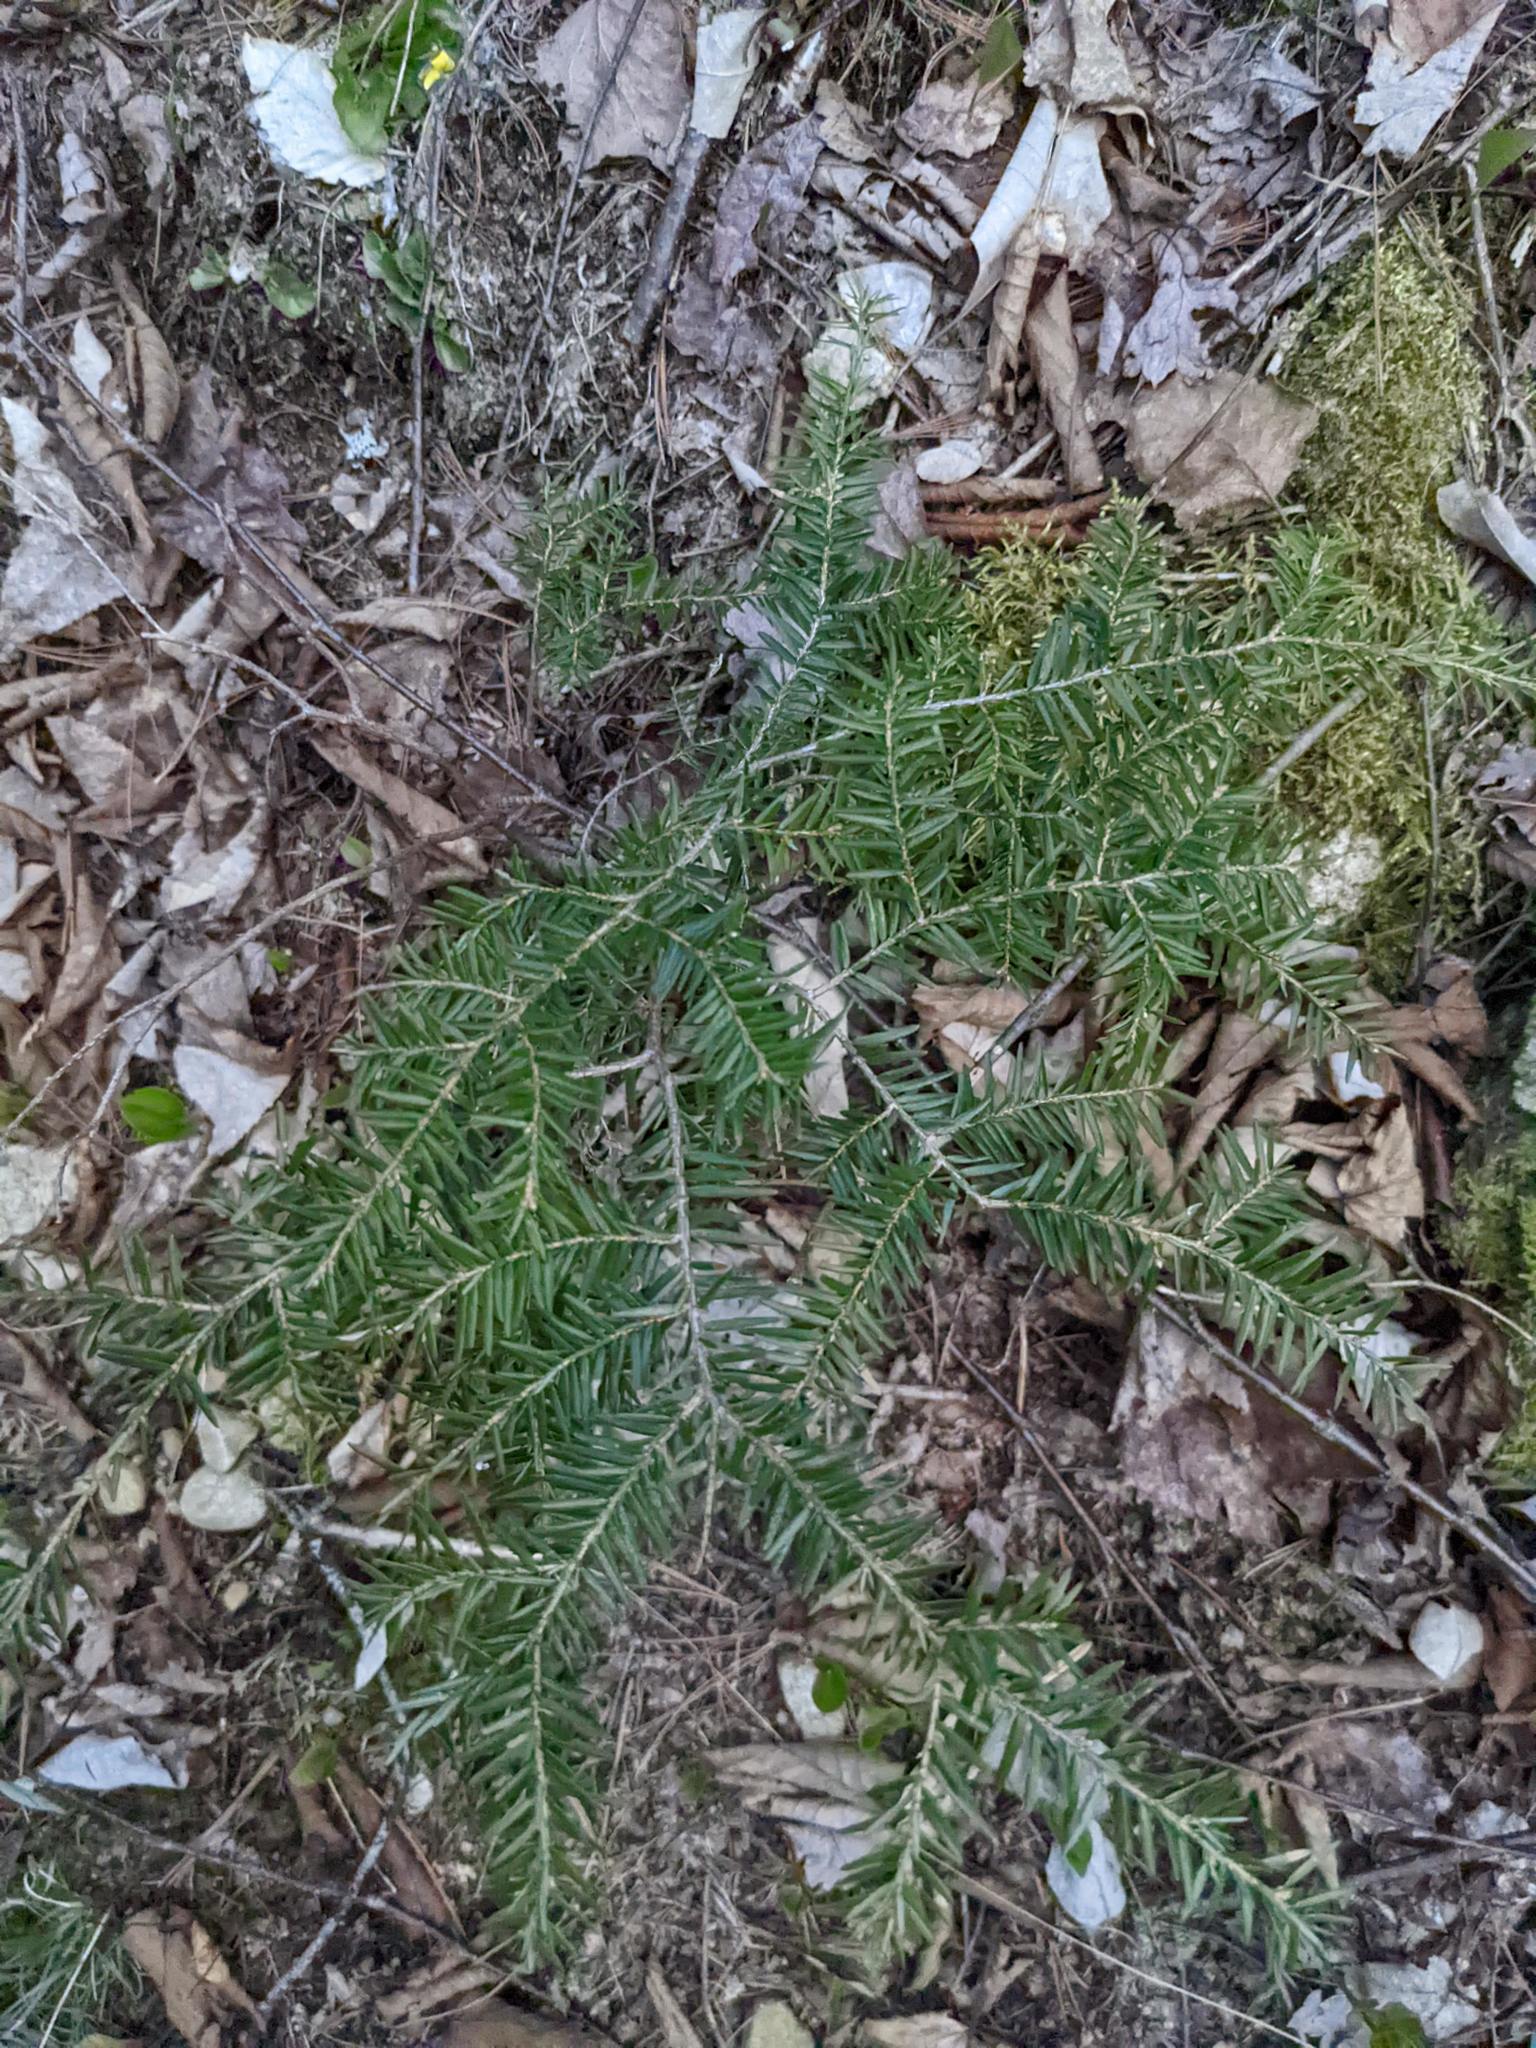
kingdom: Plantae
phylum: Tracheophyta
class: Pinopsida
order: Pinales
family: Pinaceae
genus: Tsuga
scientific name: Tsuga canadensis
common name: Eastern hemlock
